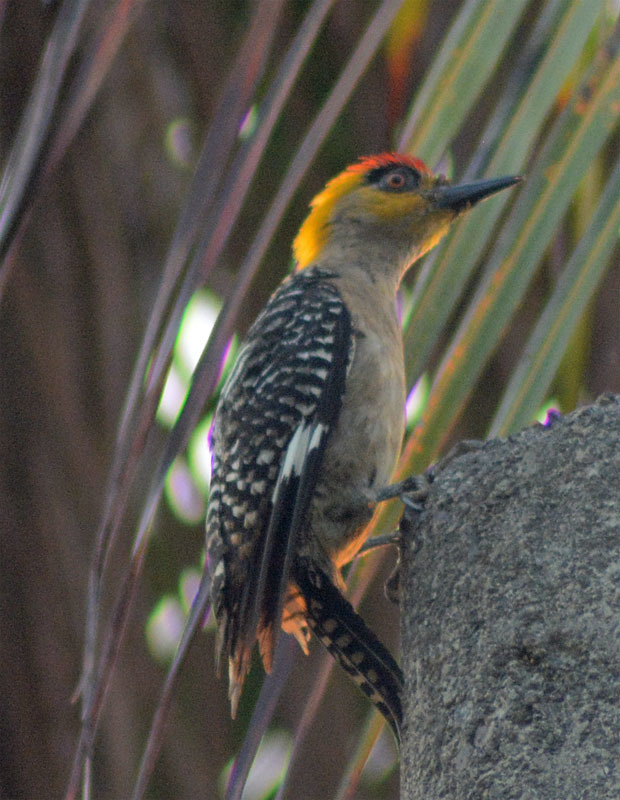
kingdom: Animalia
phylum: Chordata
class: Aves
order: Piciformes
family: Picidae
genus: Melanerpes
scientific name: Melanerpes chrysogenys
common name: Golden-cheeked woodpecker
